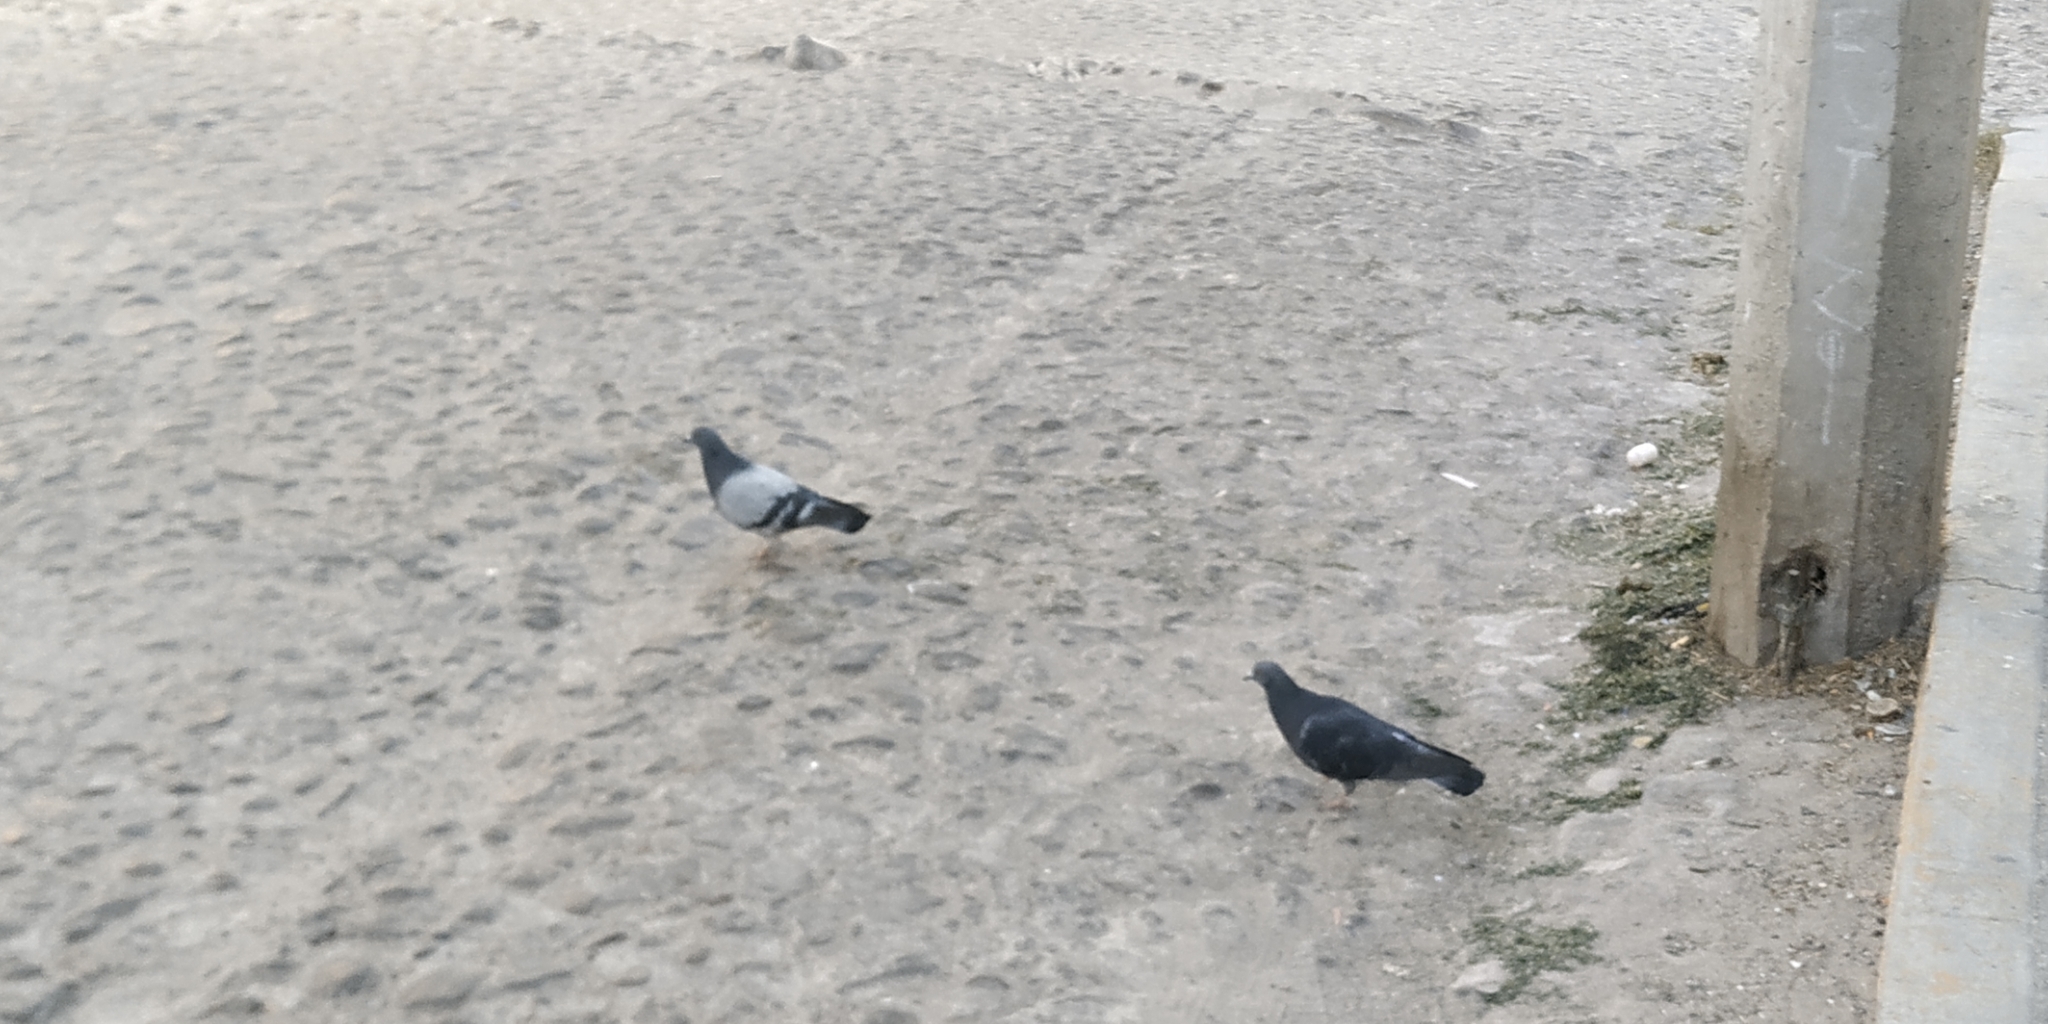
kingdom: Animalia
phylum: Chordata
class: Aves
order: Columbiformes
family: Columbidae
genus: Columba
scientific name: Columba livia
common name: Rock pigeon
